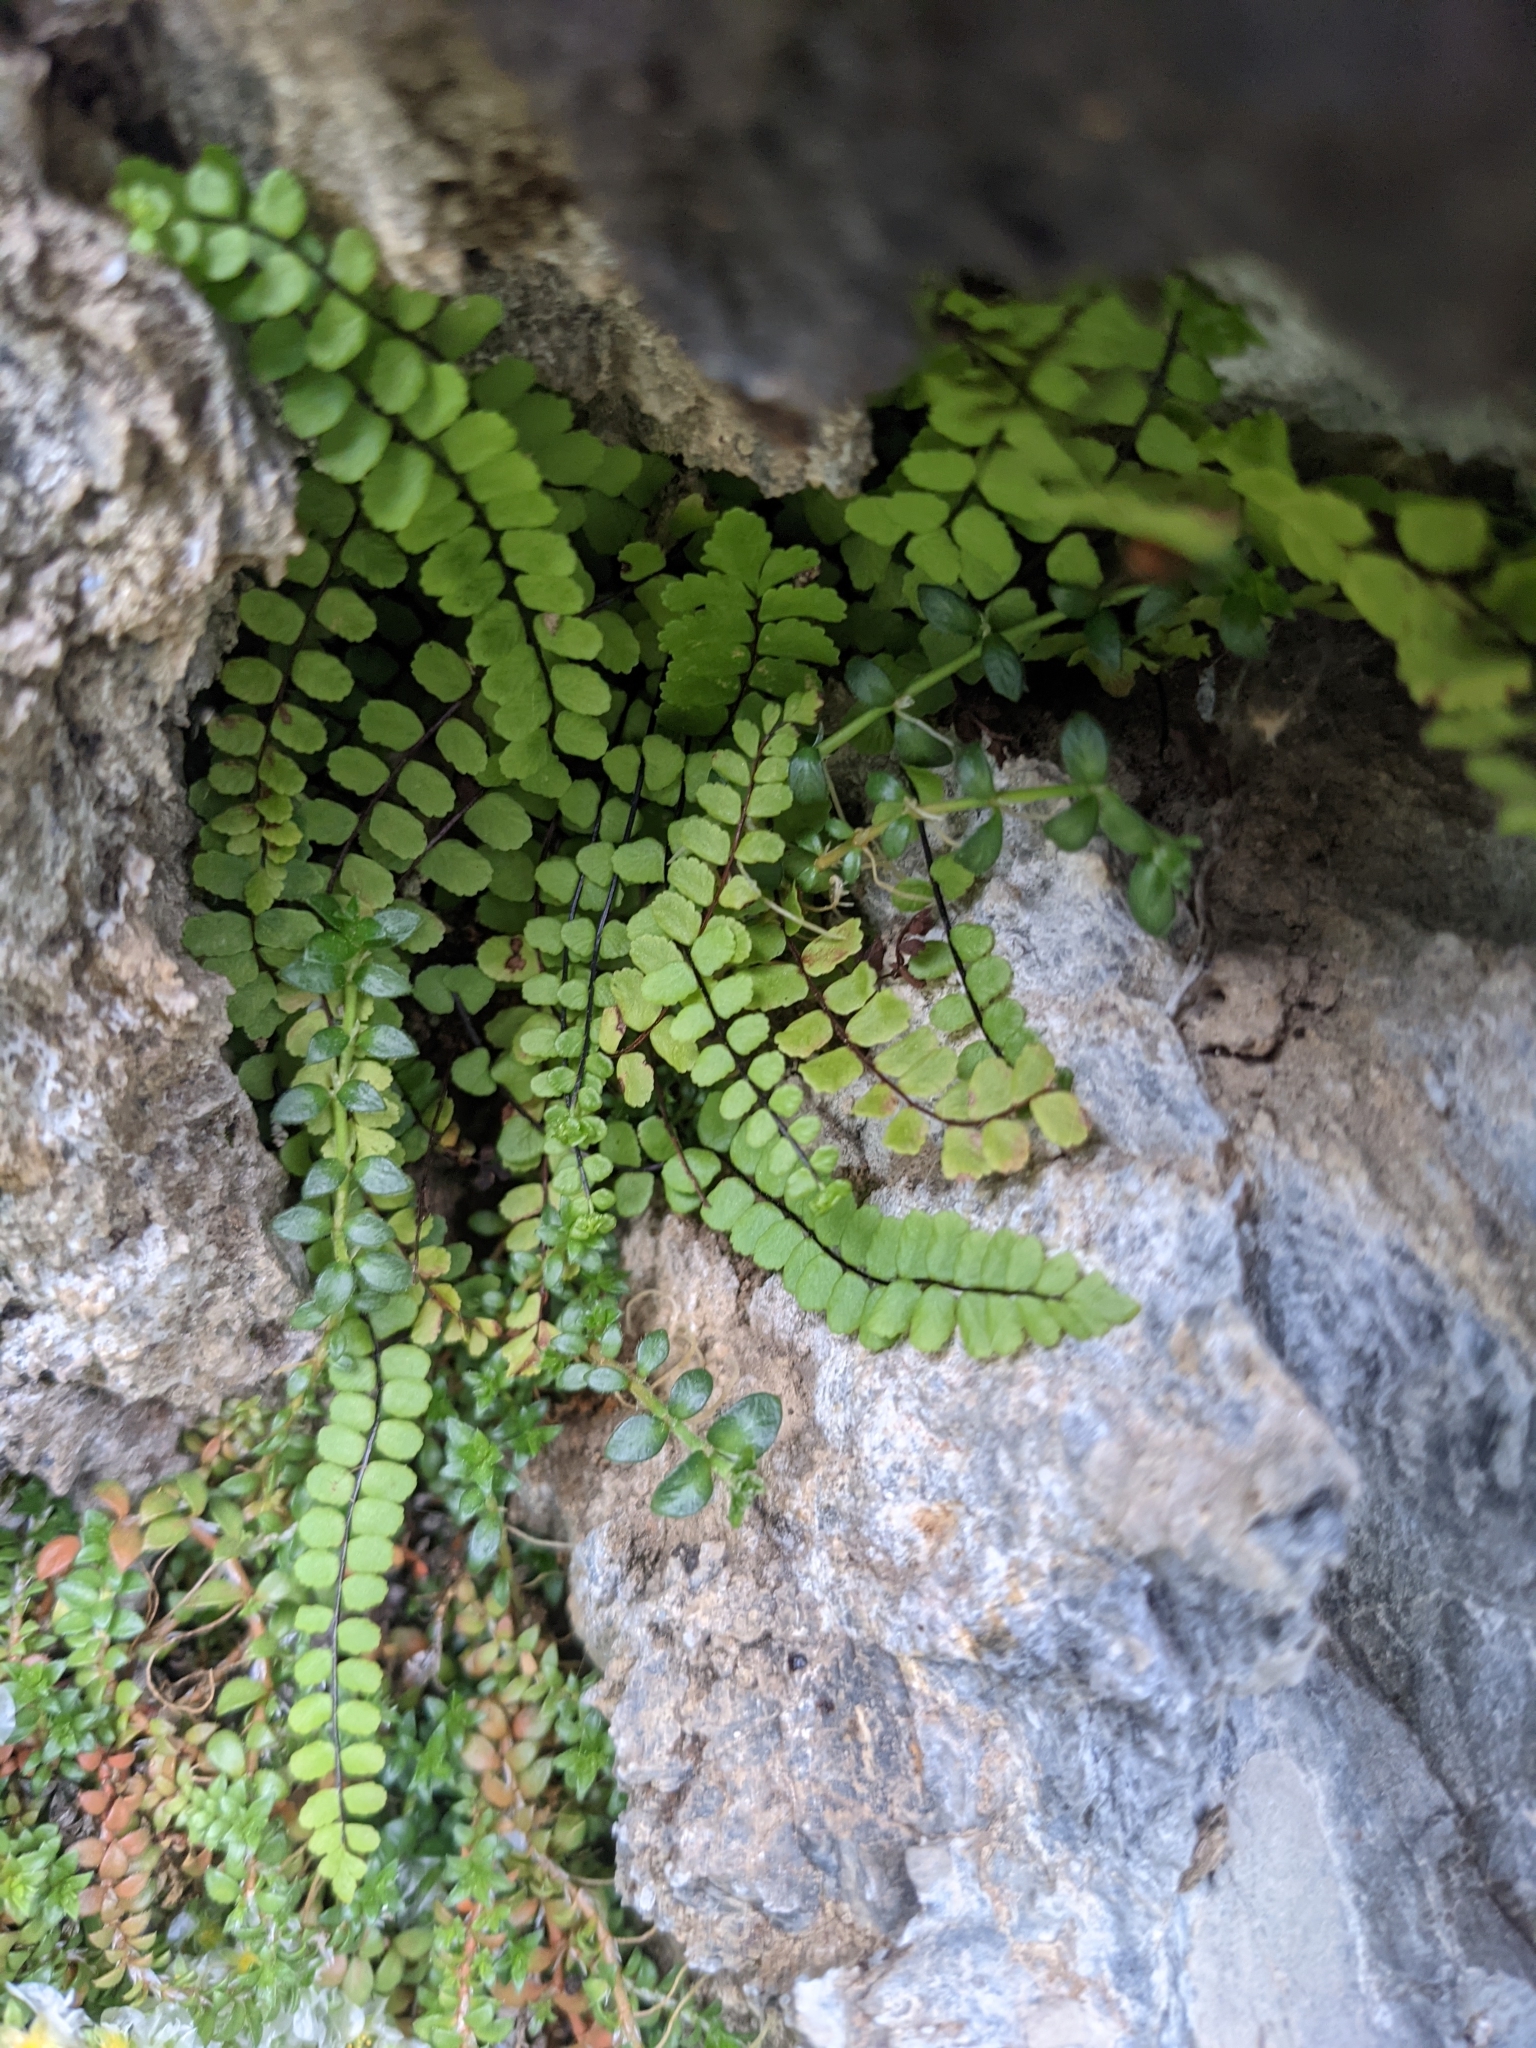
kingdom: Plantae
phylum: Tracheophyta
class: Polypodiopsida
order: Polypodiales
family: Aspleniaceae
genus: Asplenium
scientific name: Asplenium trichomanes
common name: Maidenhair spleenwort
